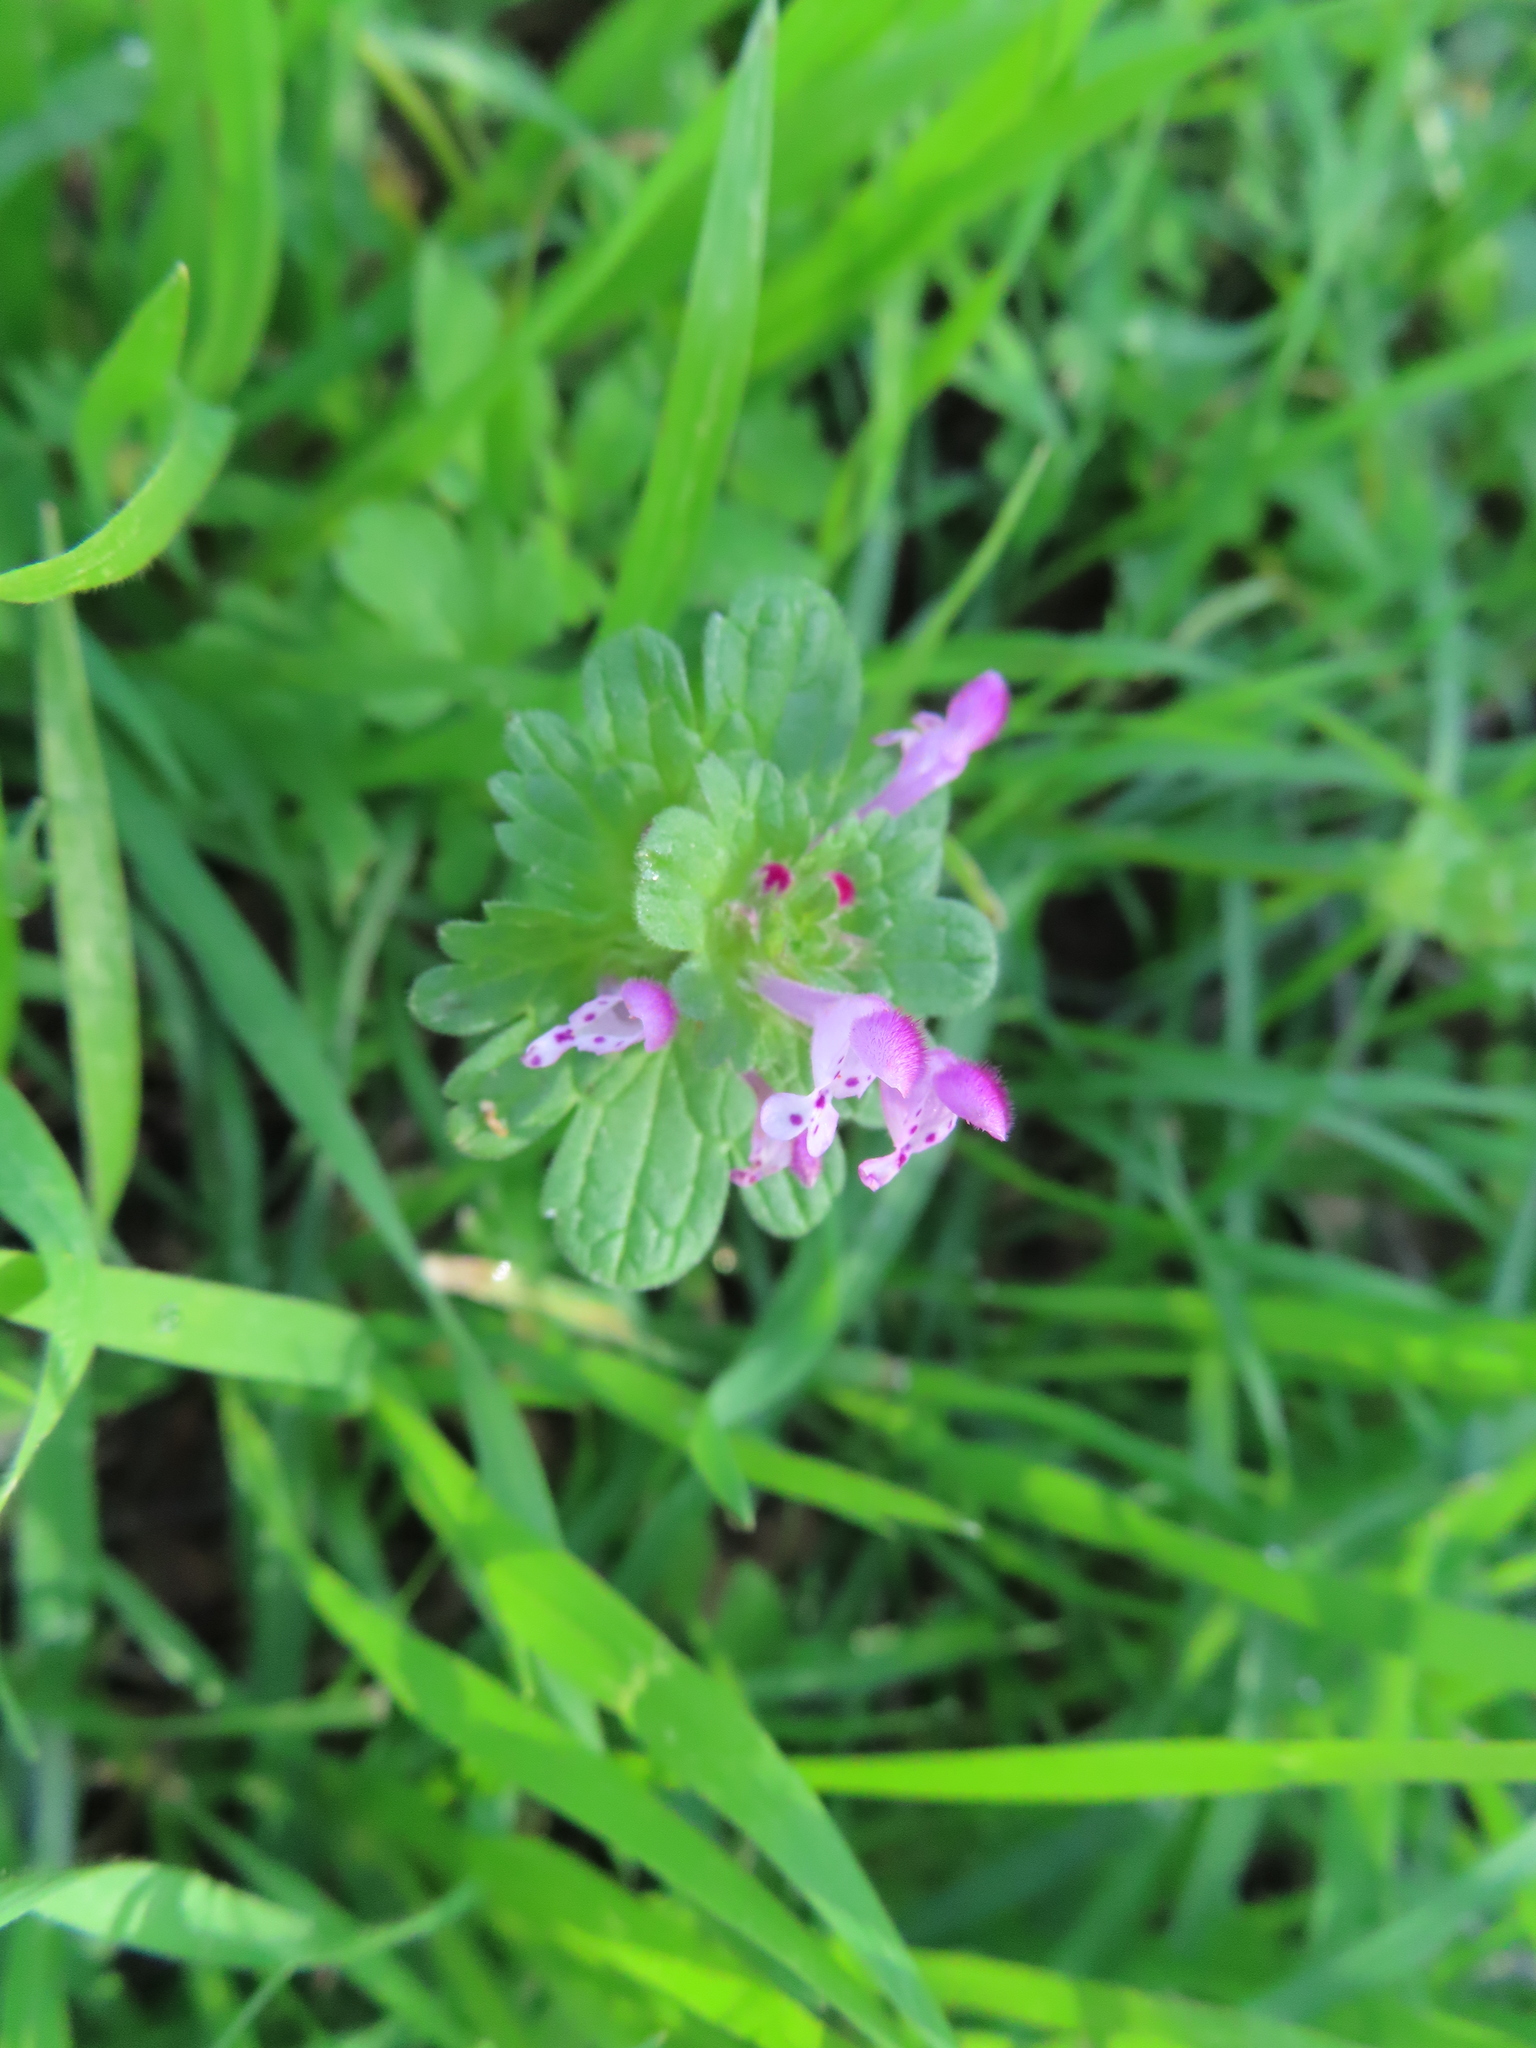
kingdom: Plantae
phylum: Tracheophyta
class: Magnoliopsida
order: Lamiales
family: Lamiaceae
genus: Lamium
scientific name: Lamium amplexicaule
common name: Henbit dead-nettle
